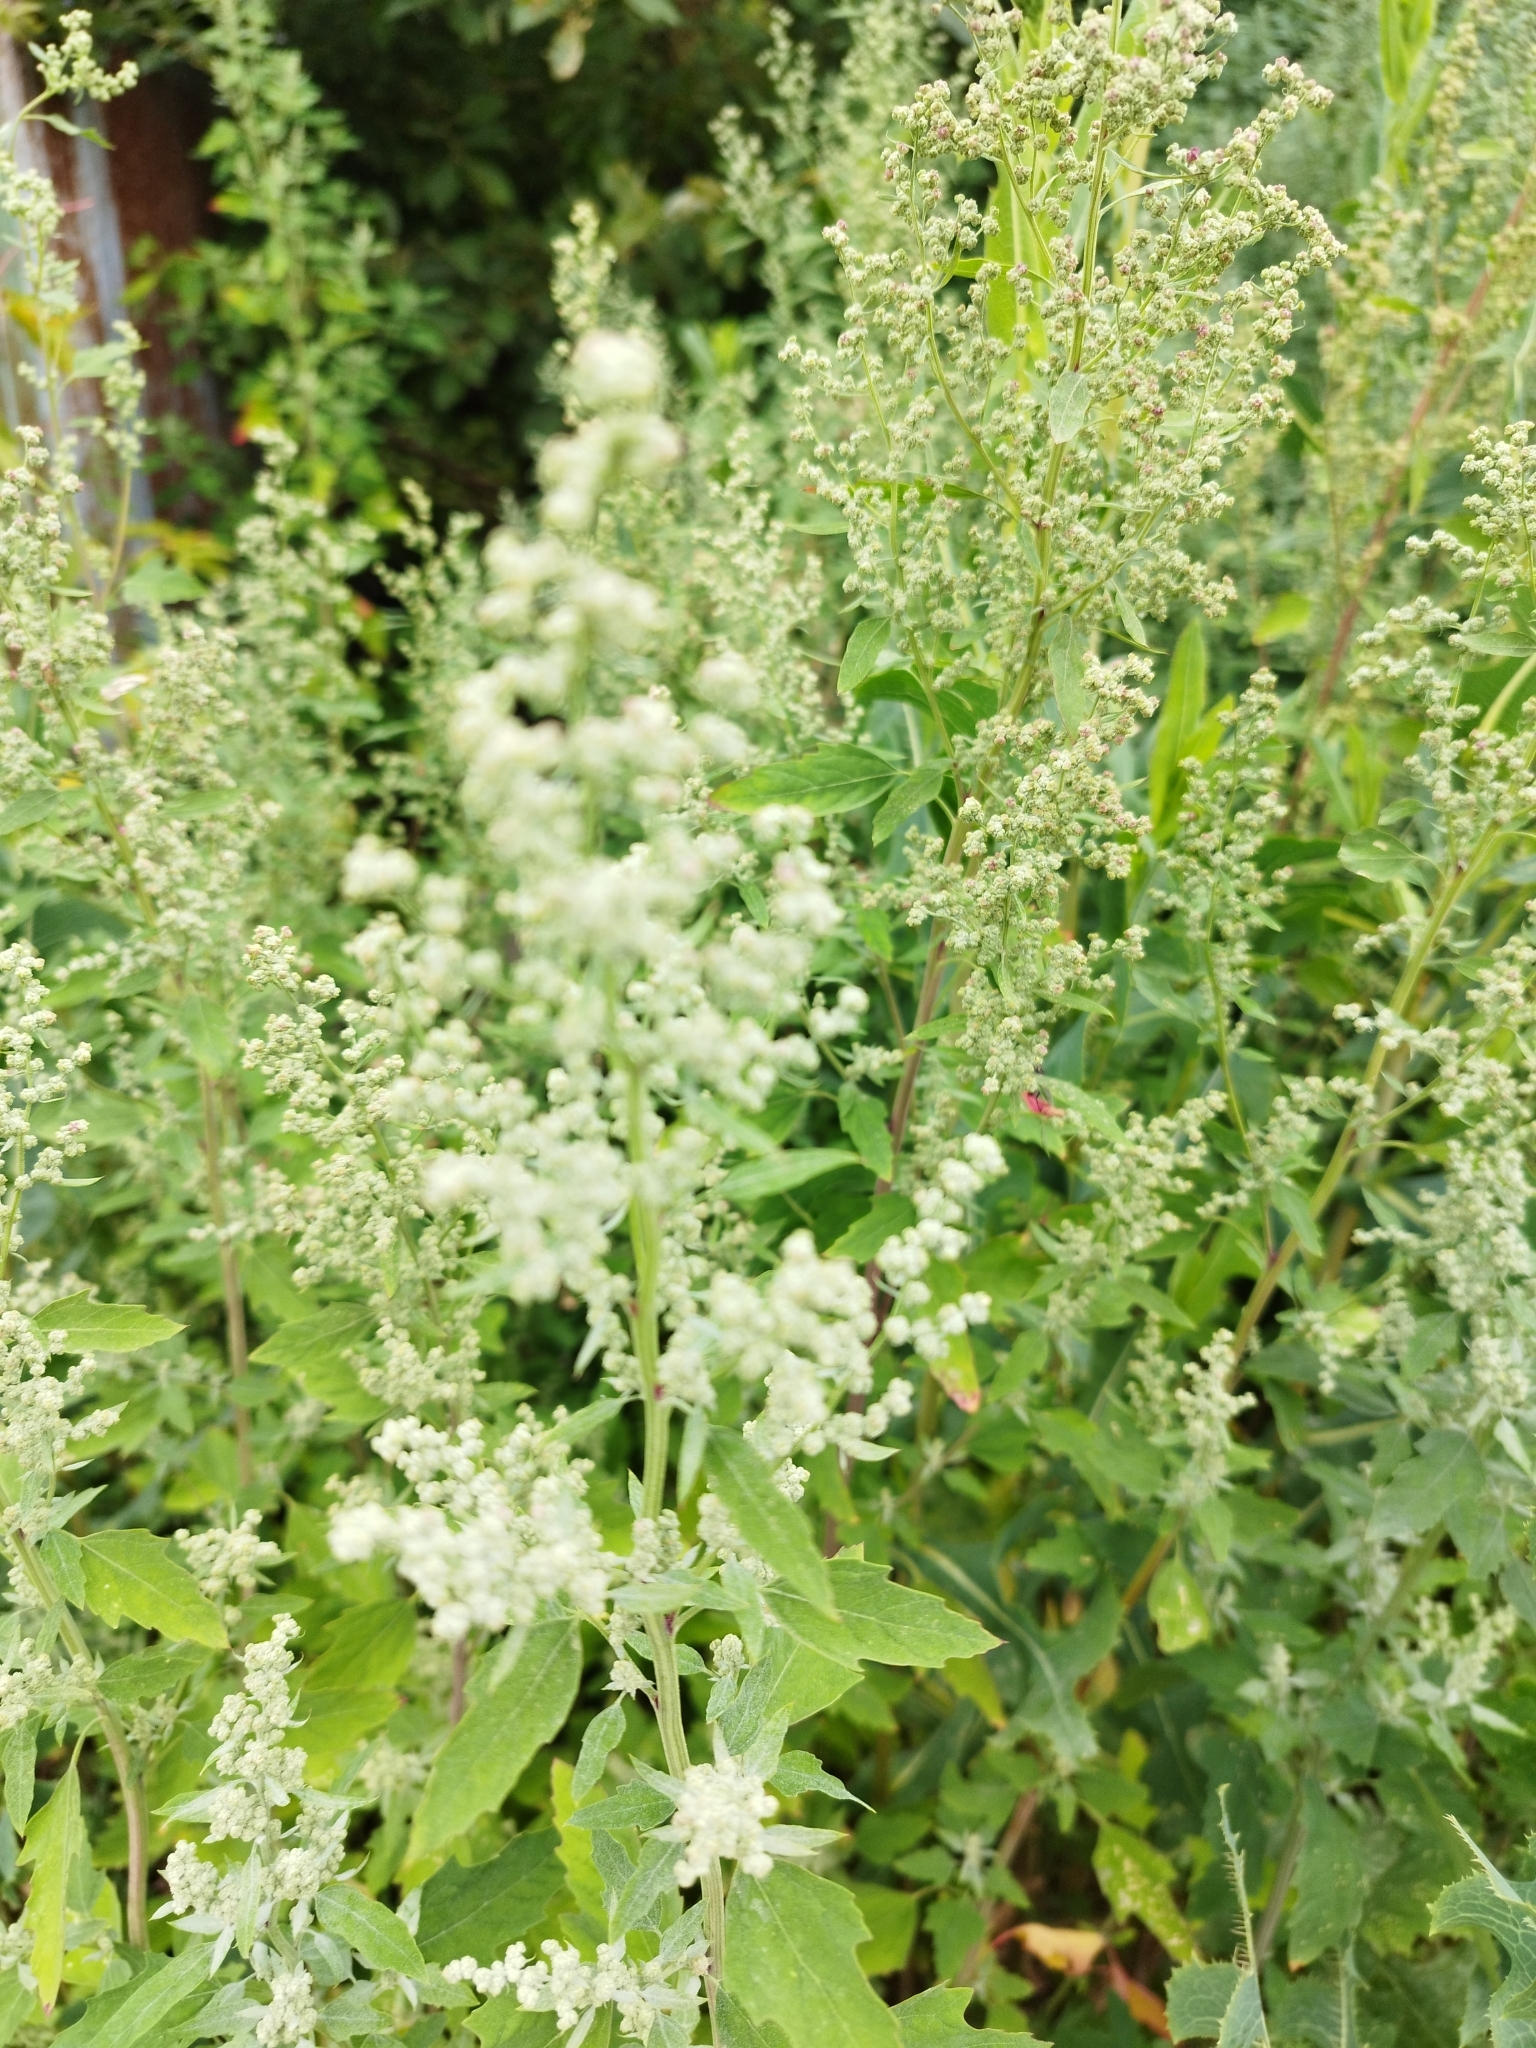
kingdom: Plantae
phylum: Tracheophyta
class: Magnoliopsida
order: Caryophyllales
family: Amaranthaceae
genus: Chenopodium
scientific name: Chenopodium album
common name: Fat-hen
